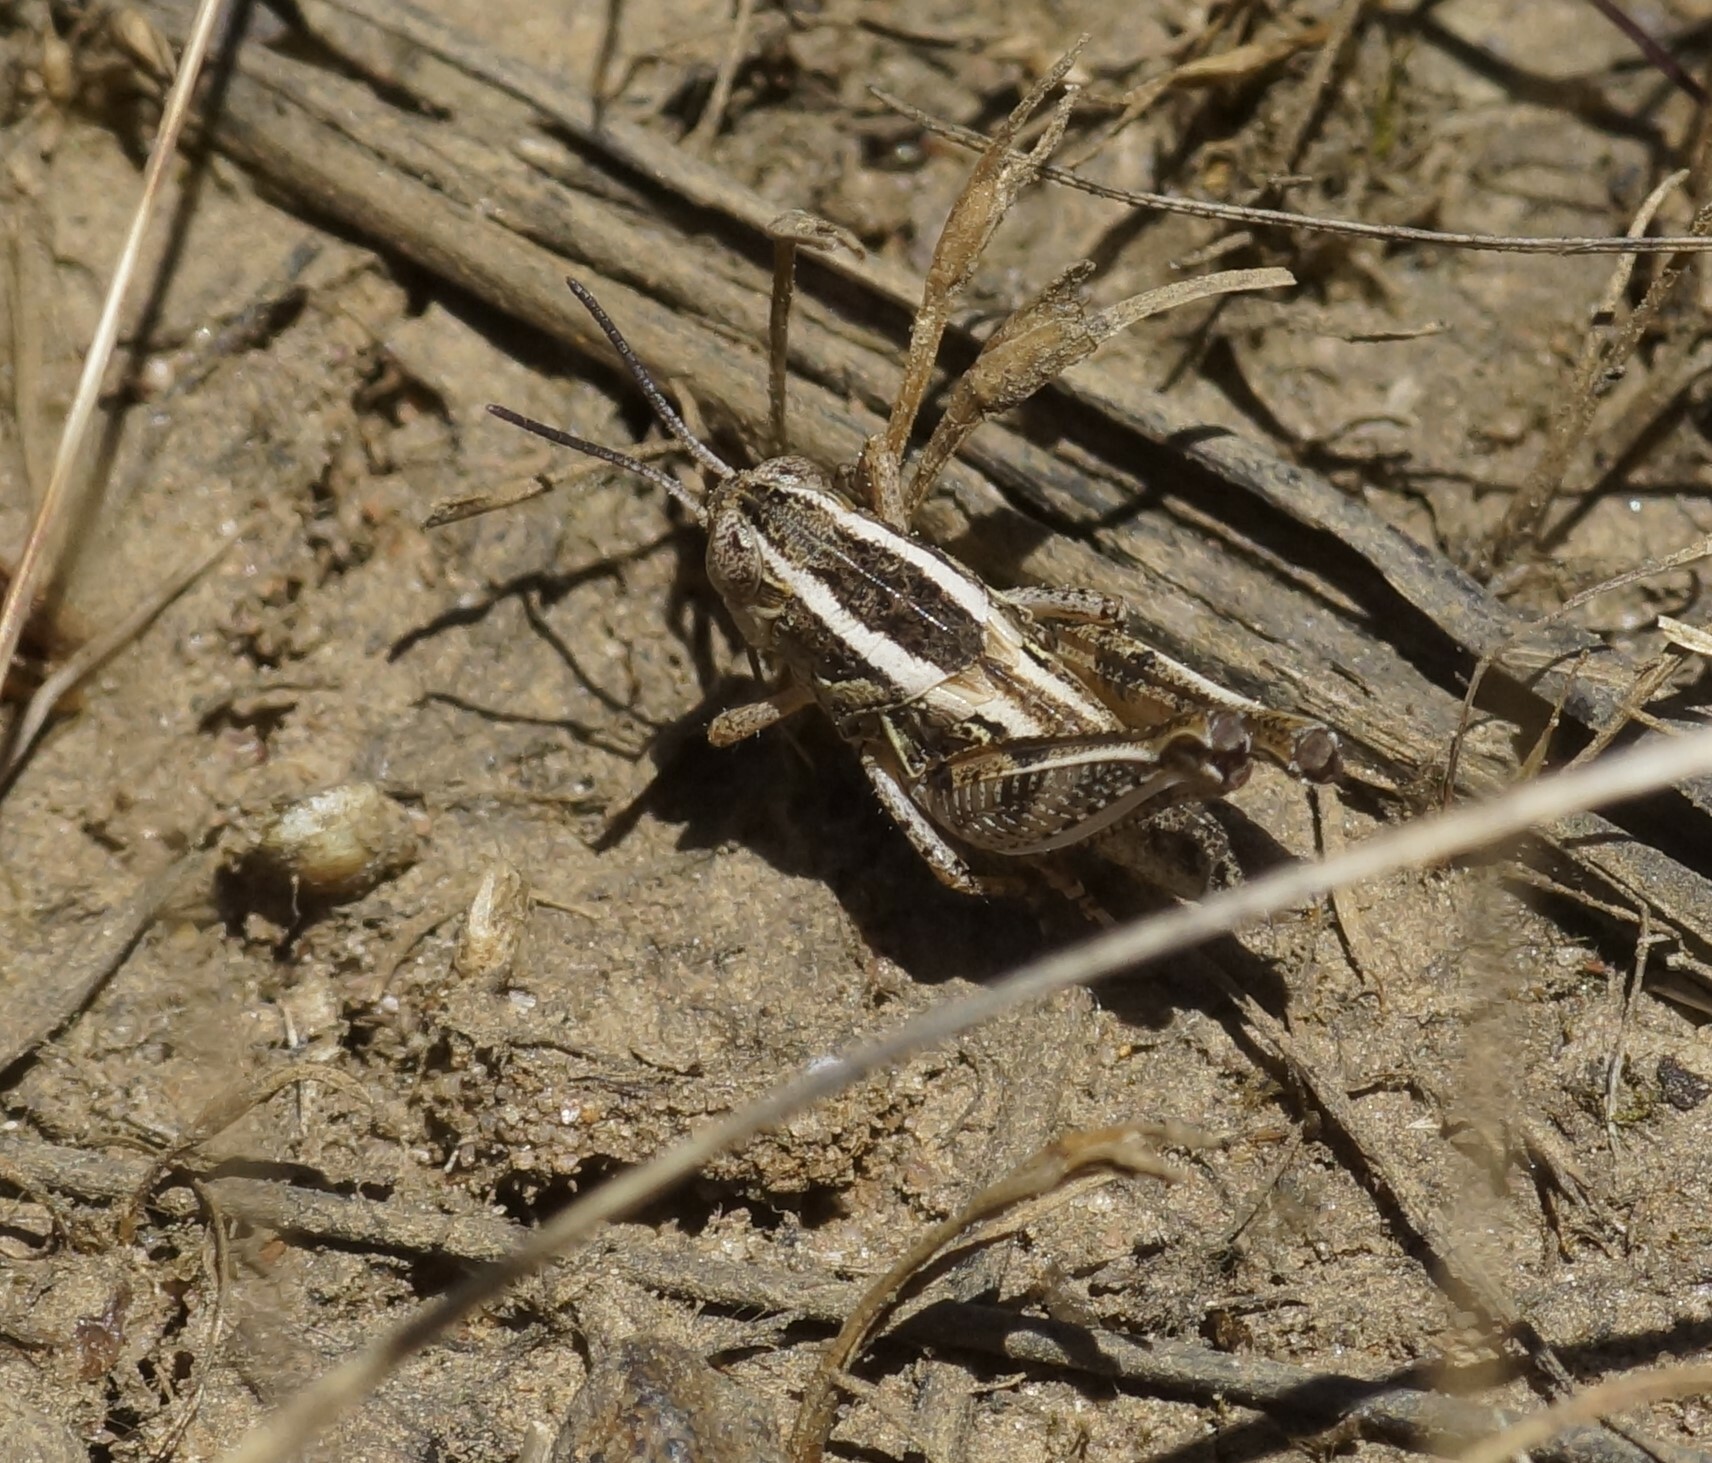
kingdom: Animalia
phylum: Arthropoda
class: Insecta
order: Orthoptera
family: Acrididae
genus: Brachyexarna
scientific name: Brachyexarna lobipennis
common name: Stripe-winged meadow grasshopper
